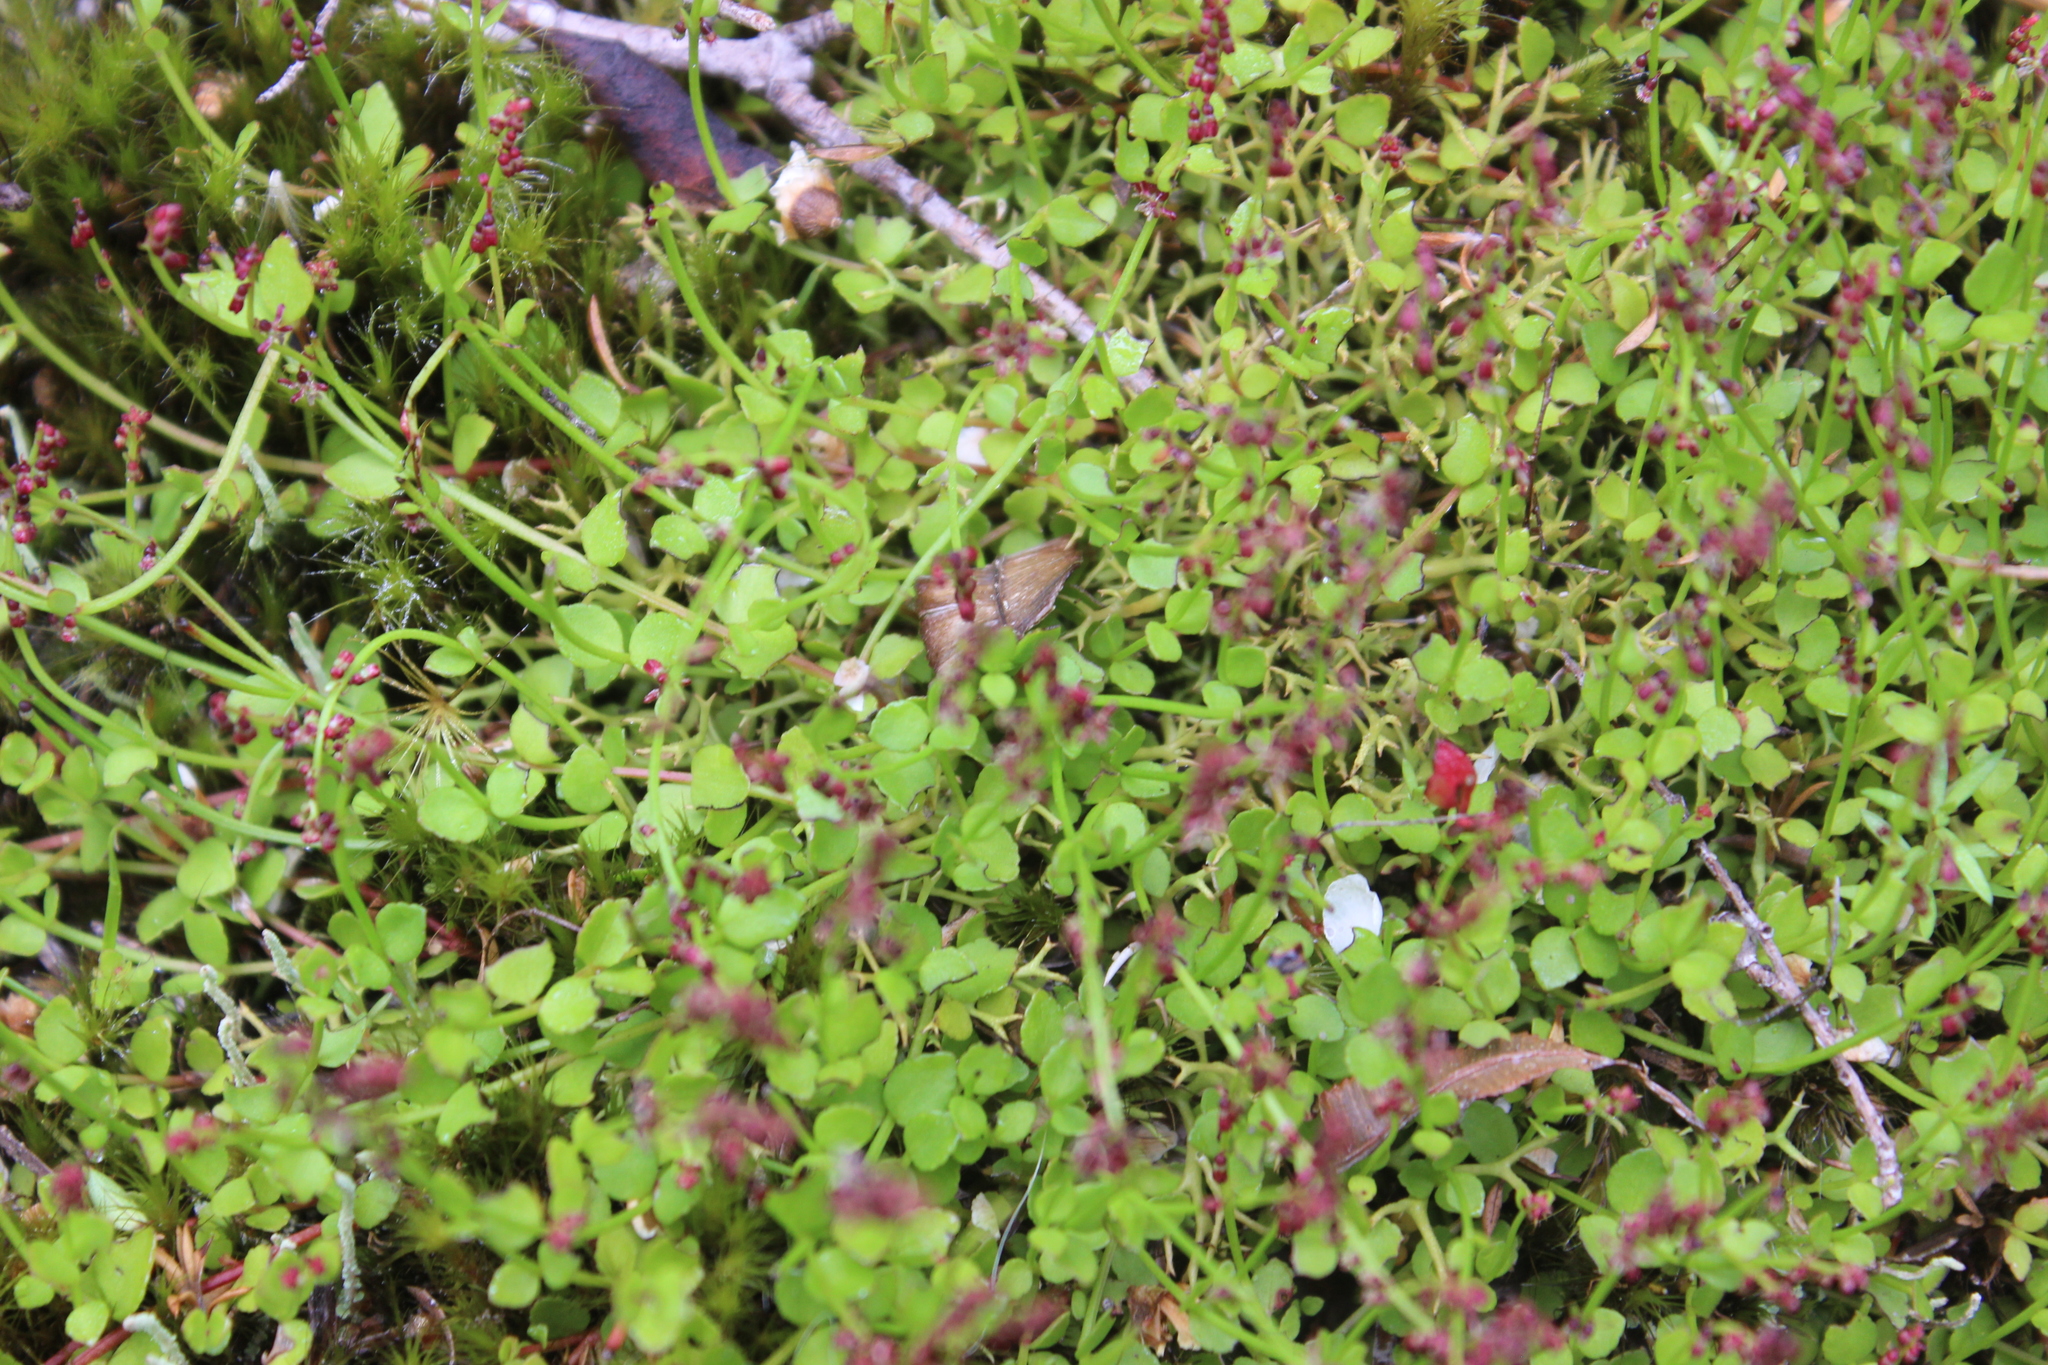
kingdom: Plantae
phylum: Tracheophyta
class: Magnoliopsida
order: Saxifragales
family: Haloragaceae
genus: Gonocarpus
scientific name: Gonocarpus micranthus
